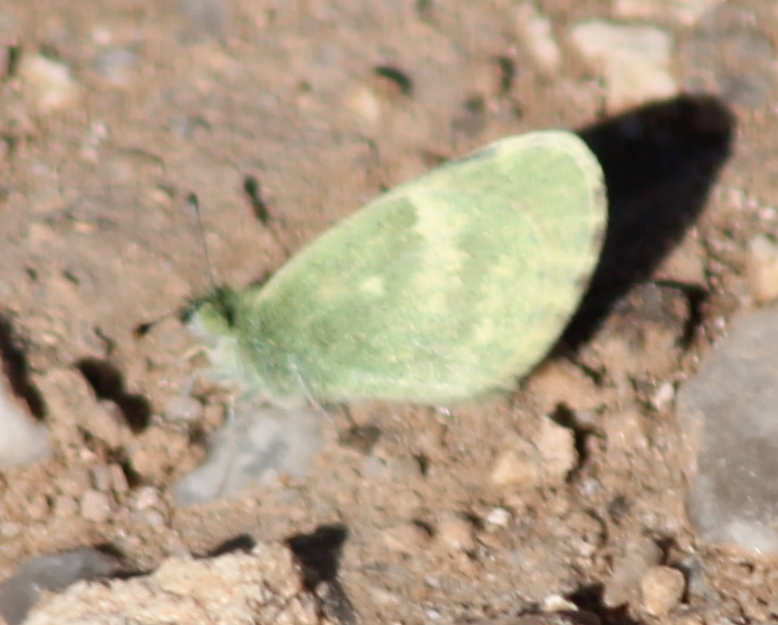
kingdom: Animalia
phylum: Arthropoda
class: Insecta
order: Lepidoptera
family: Pieridae
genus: Nathalis
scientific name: Nathalis iole
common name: Dainty sulphur
